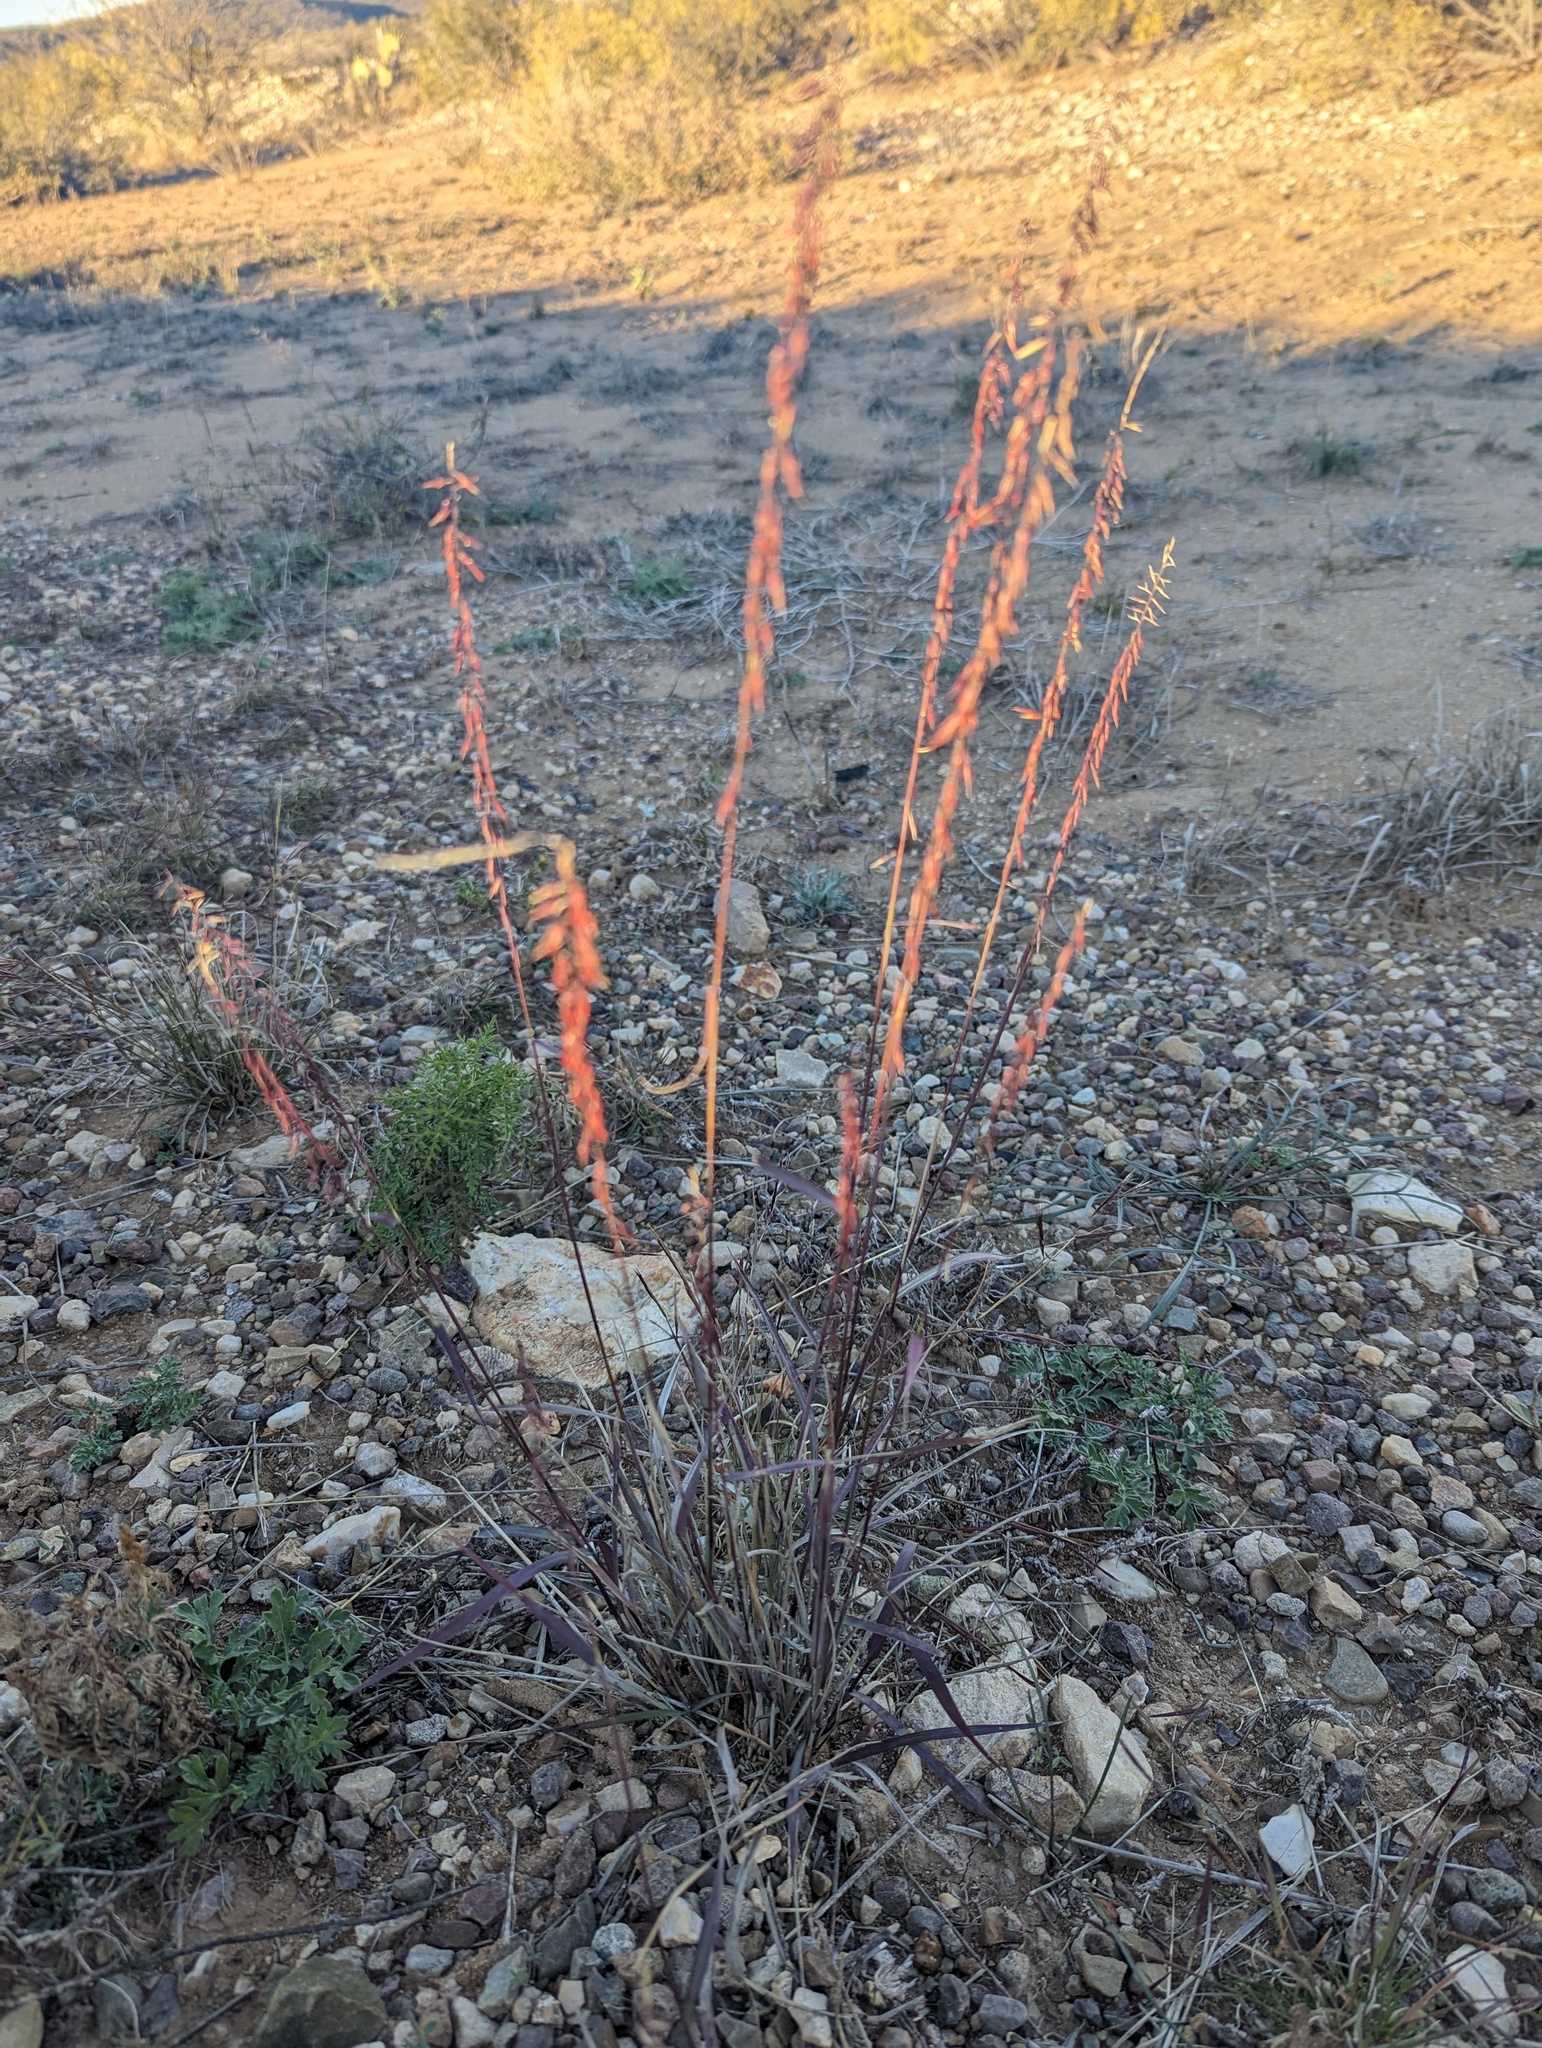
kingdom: Plantae
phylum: Tracheophyta
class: Liliopsida
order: Poales
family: Poaceae
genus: Bouteloua
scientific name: Bouteloua curtipendula
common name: Side-oats grama
